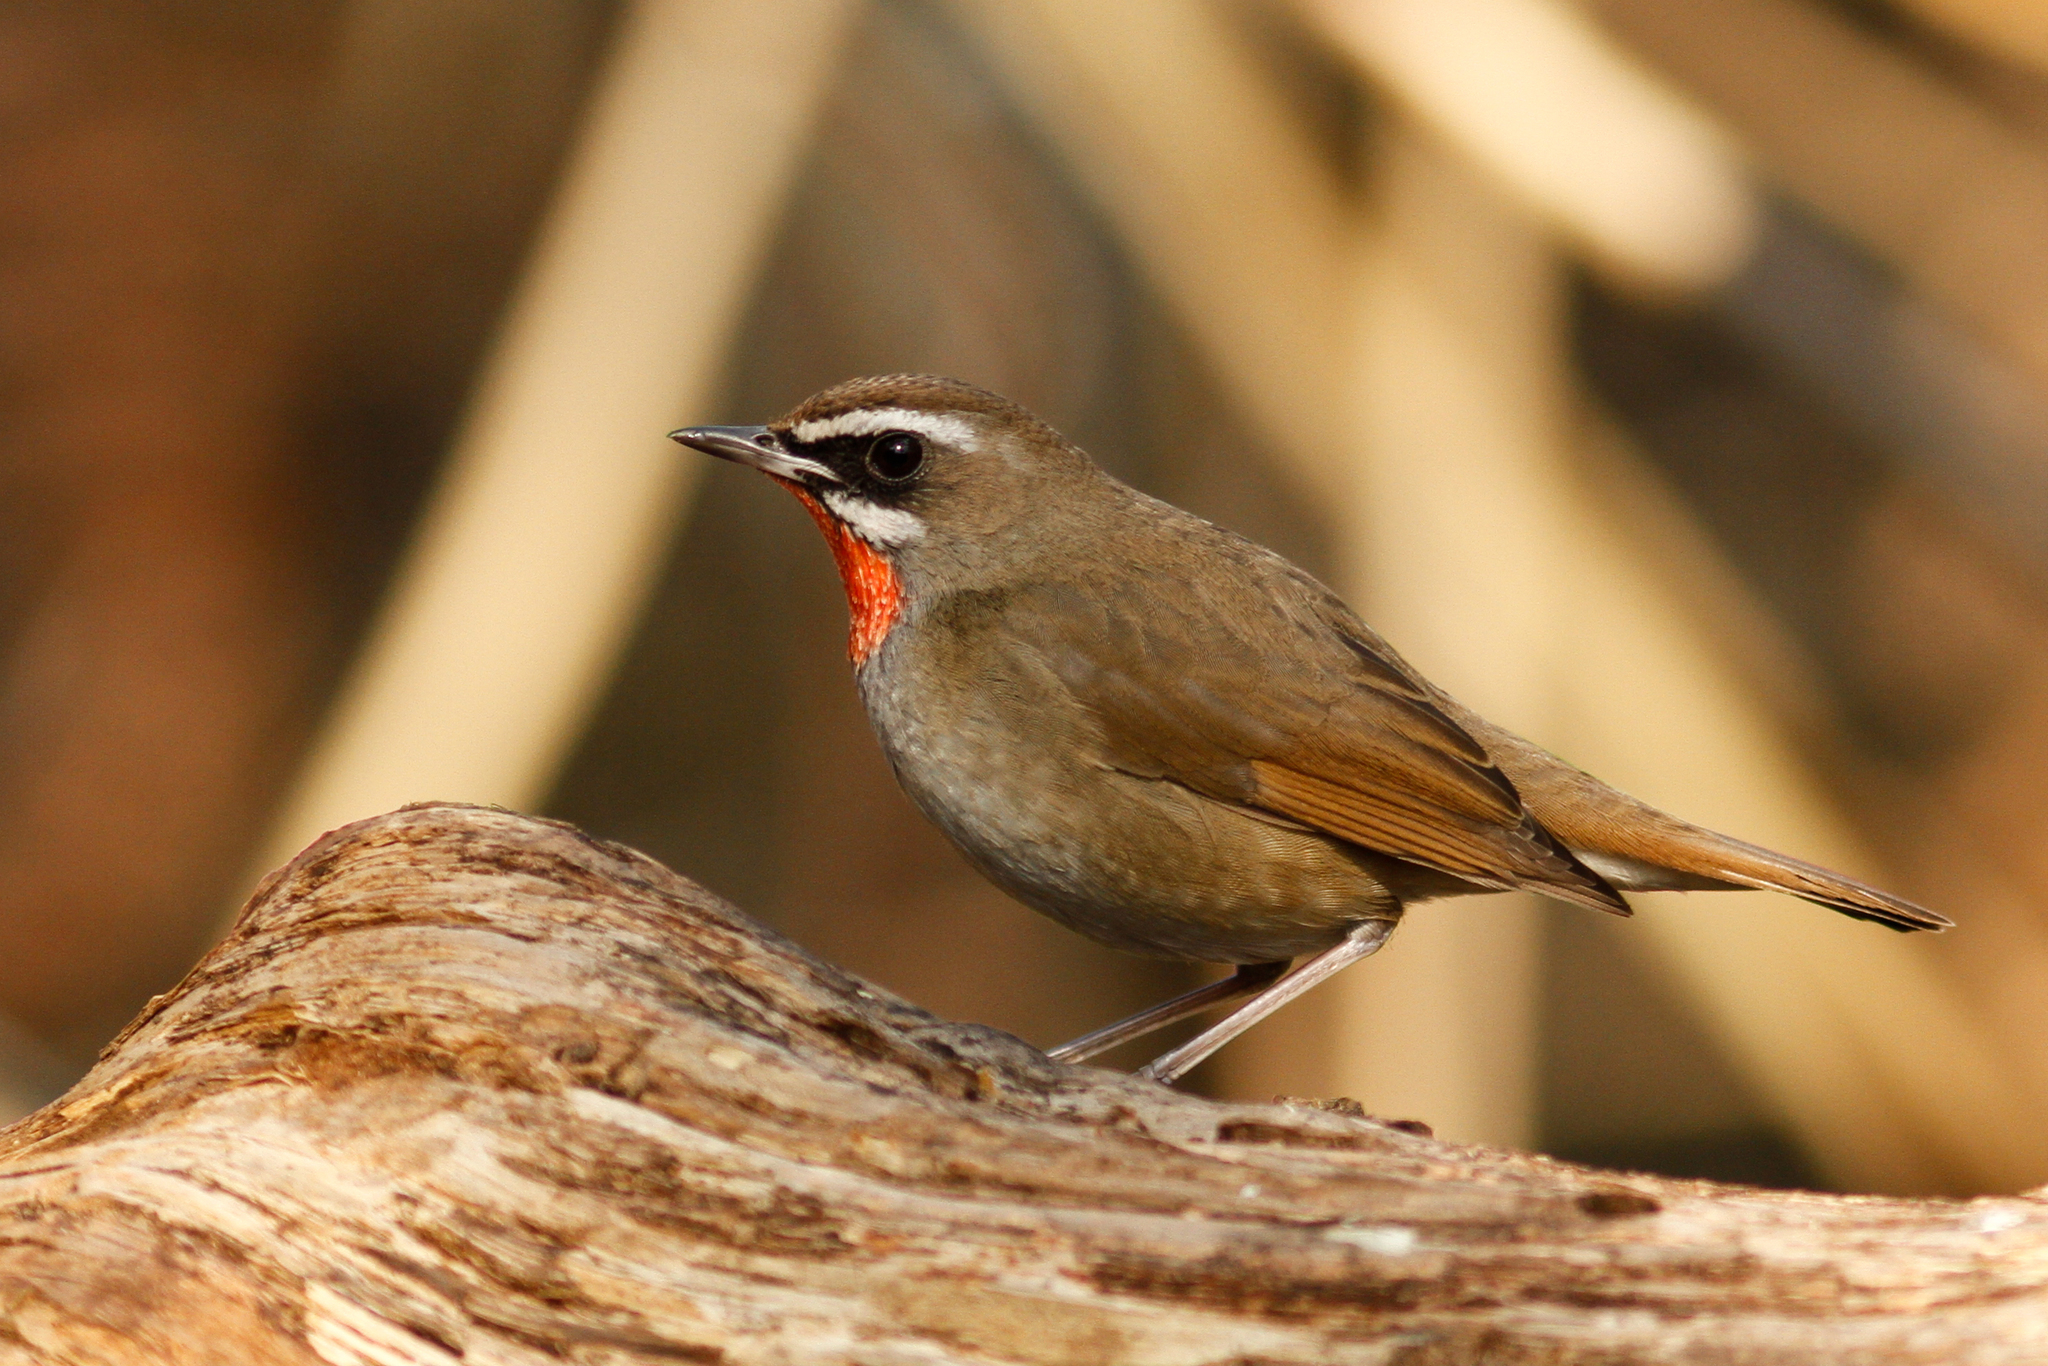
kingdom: Animalia
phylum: Chordata
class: Aves
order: Passeriformes
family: Muscicapidae
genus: Luscinia
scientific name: Luscinia calliope
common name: Siberian rubythroat
